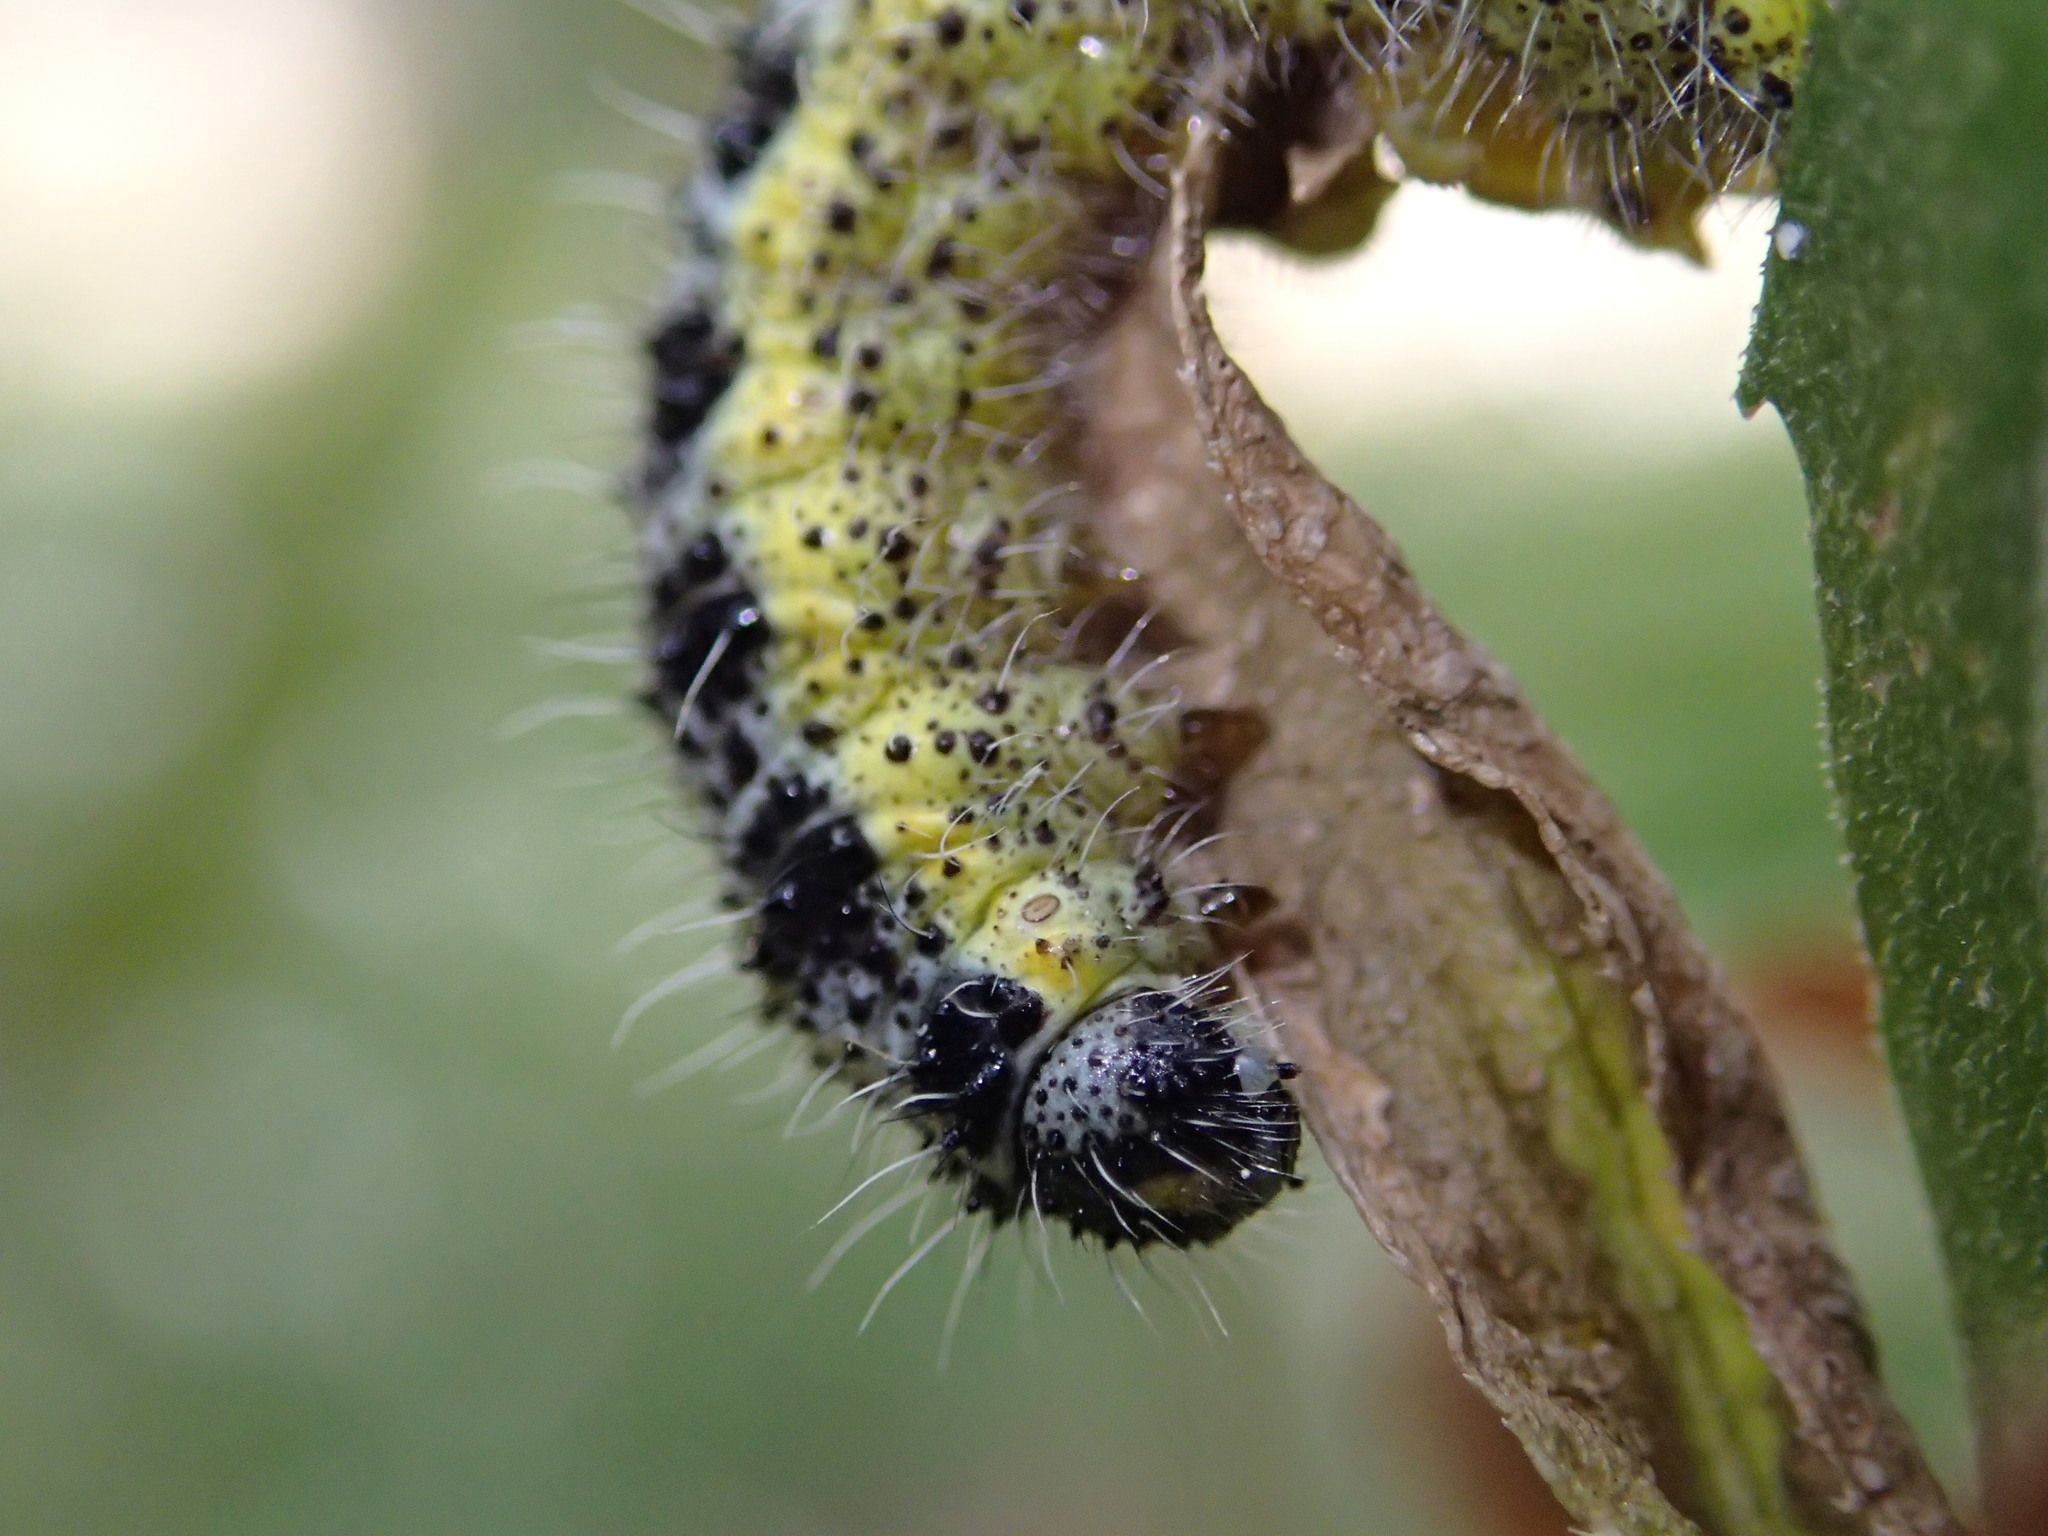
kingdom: Animalia
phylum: Arthropoda
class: Insecta
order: Lepidoptera
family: Pieridae
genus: Pieris
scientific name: Pieris brassicae
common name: Large white
